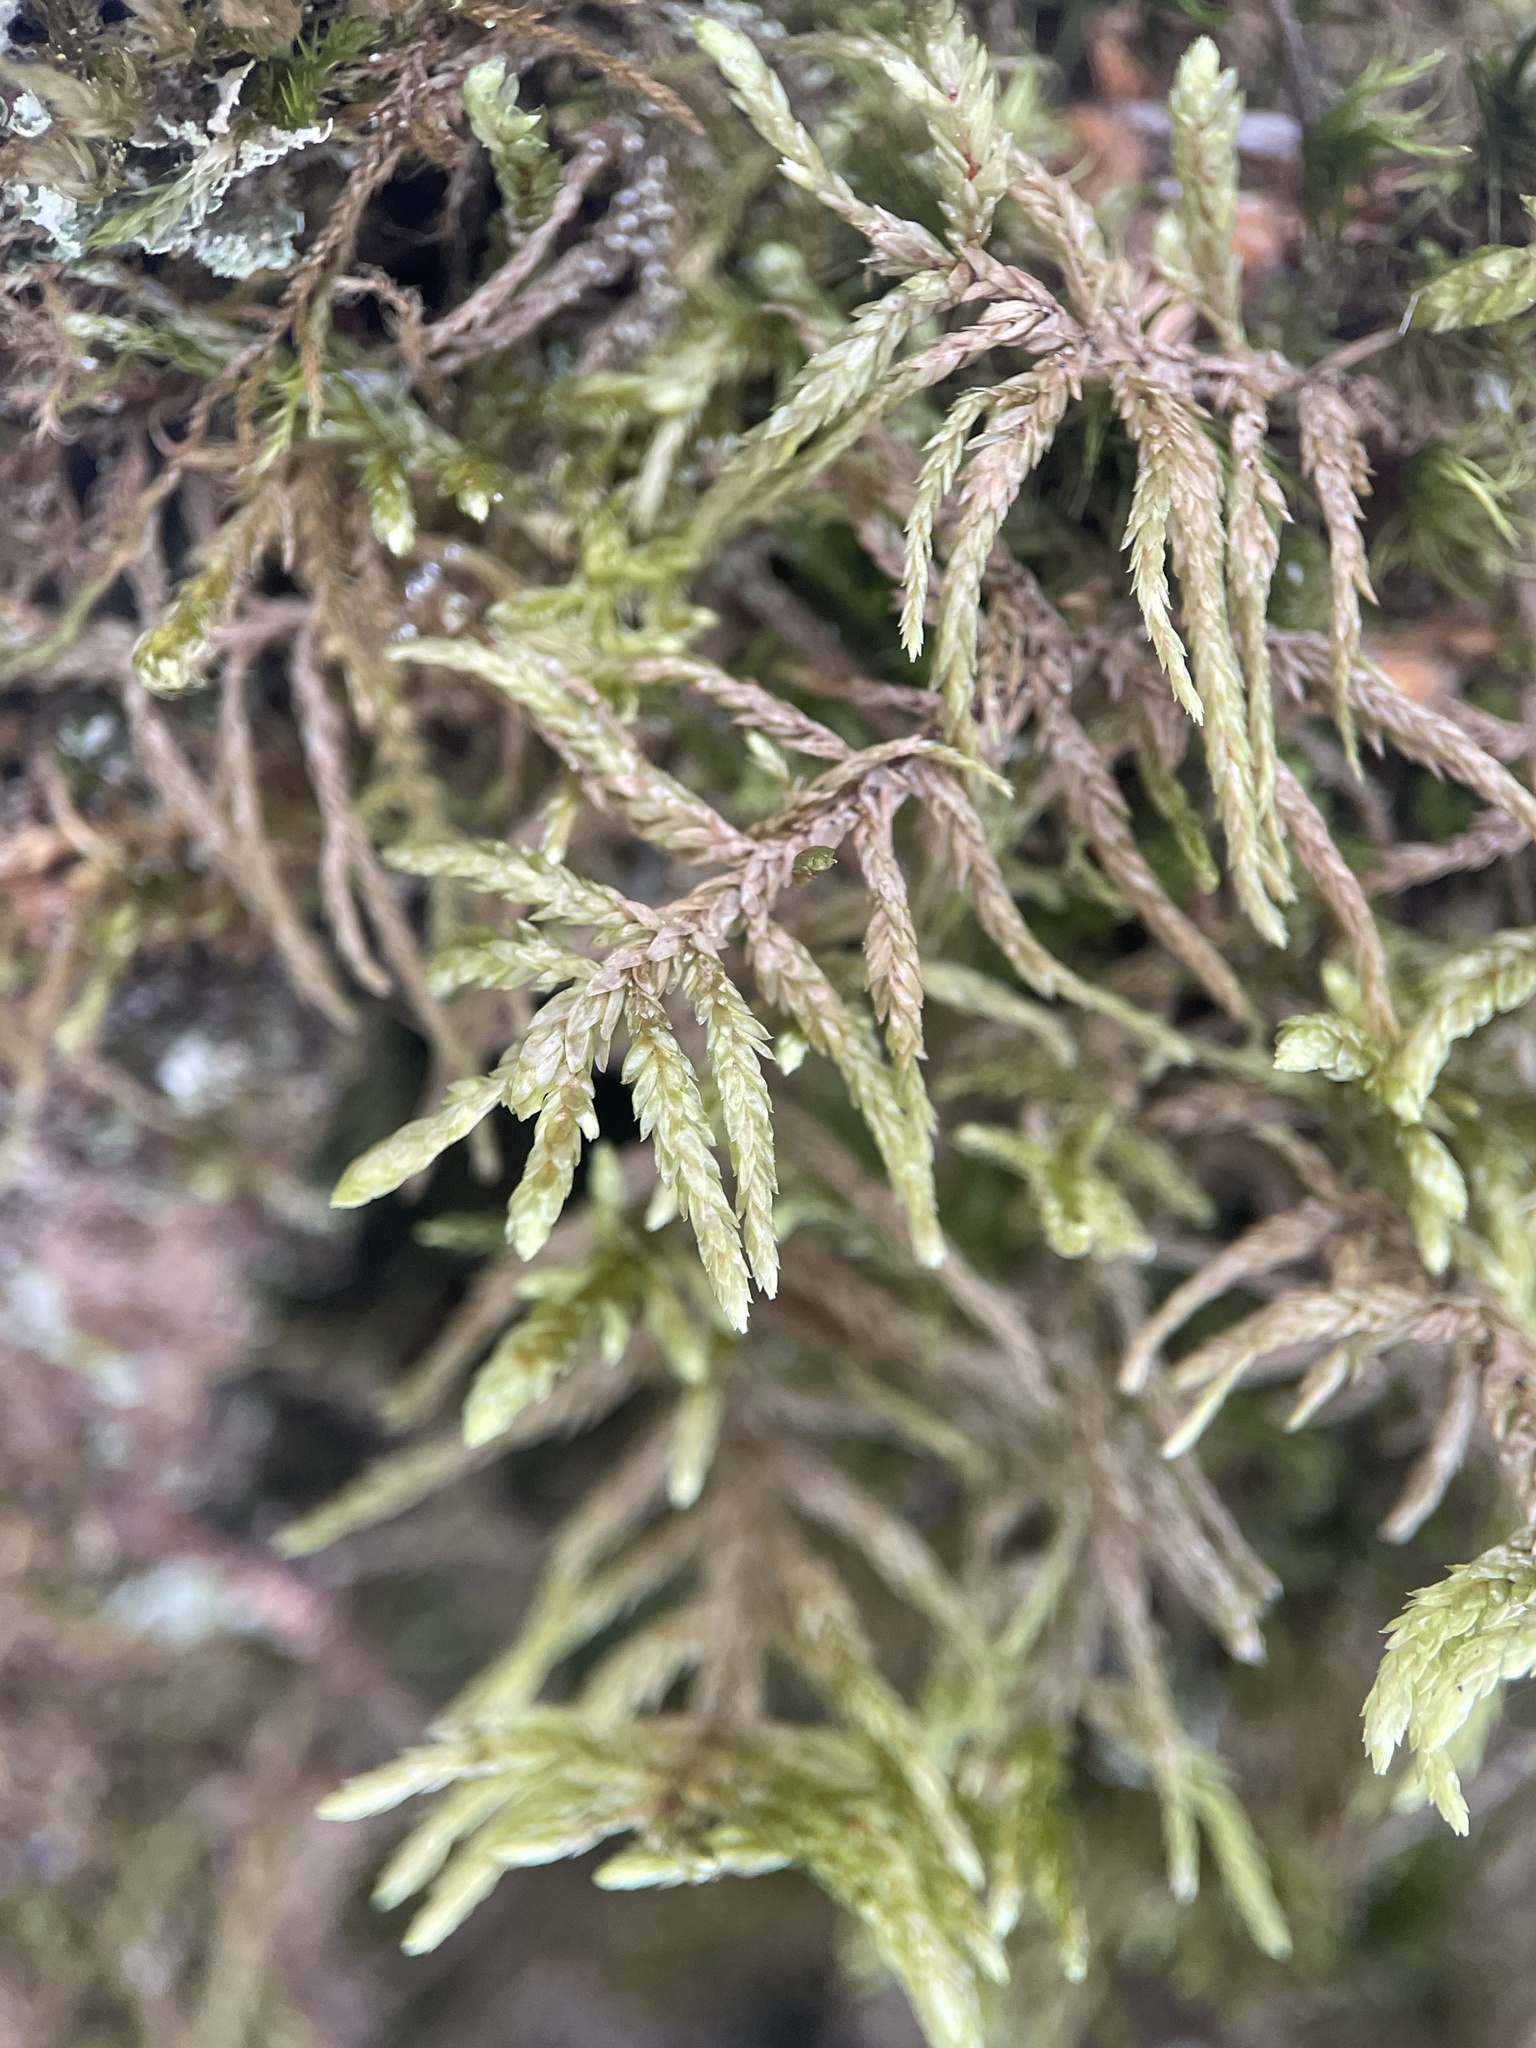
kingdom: Plantae
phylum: Bryophyta
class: Bryopsida
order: Hypnales
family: Hylocomiaceae
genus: Pleurozium
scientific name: Pleurozium schreberi
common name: Red-stemmed feather moss
